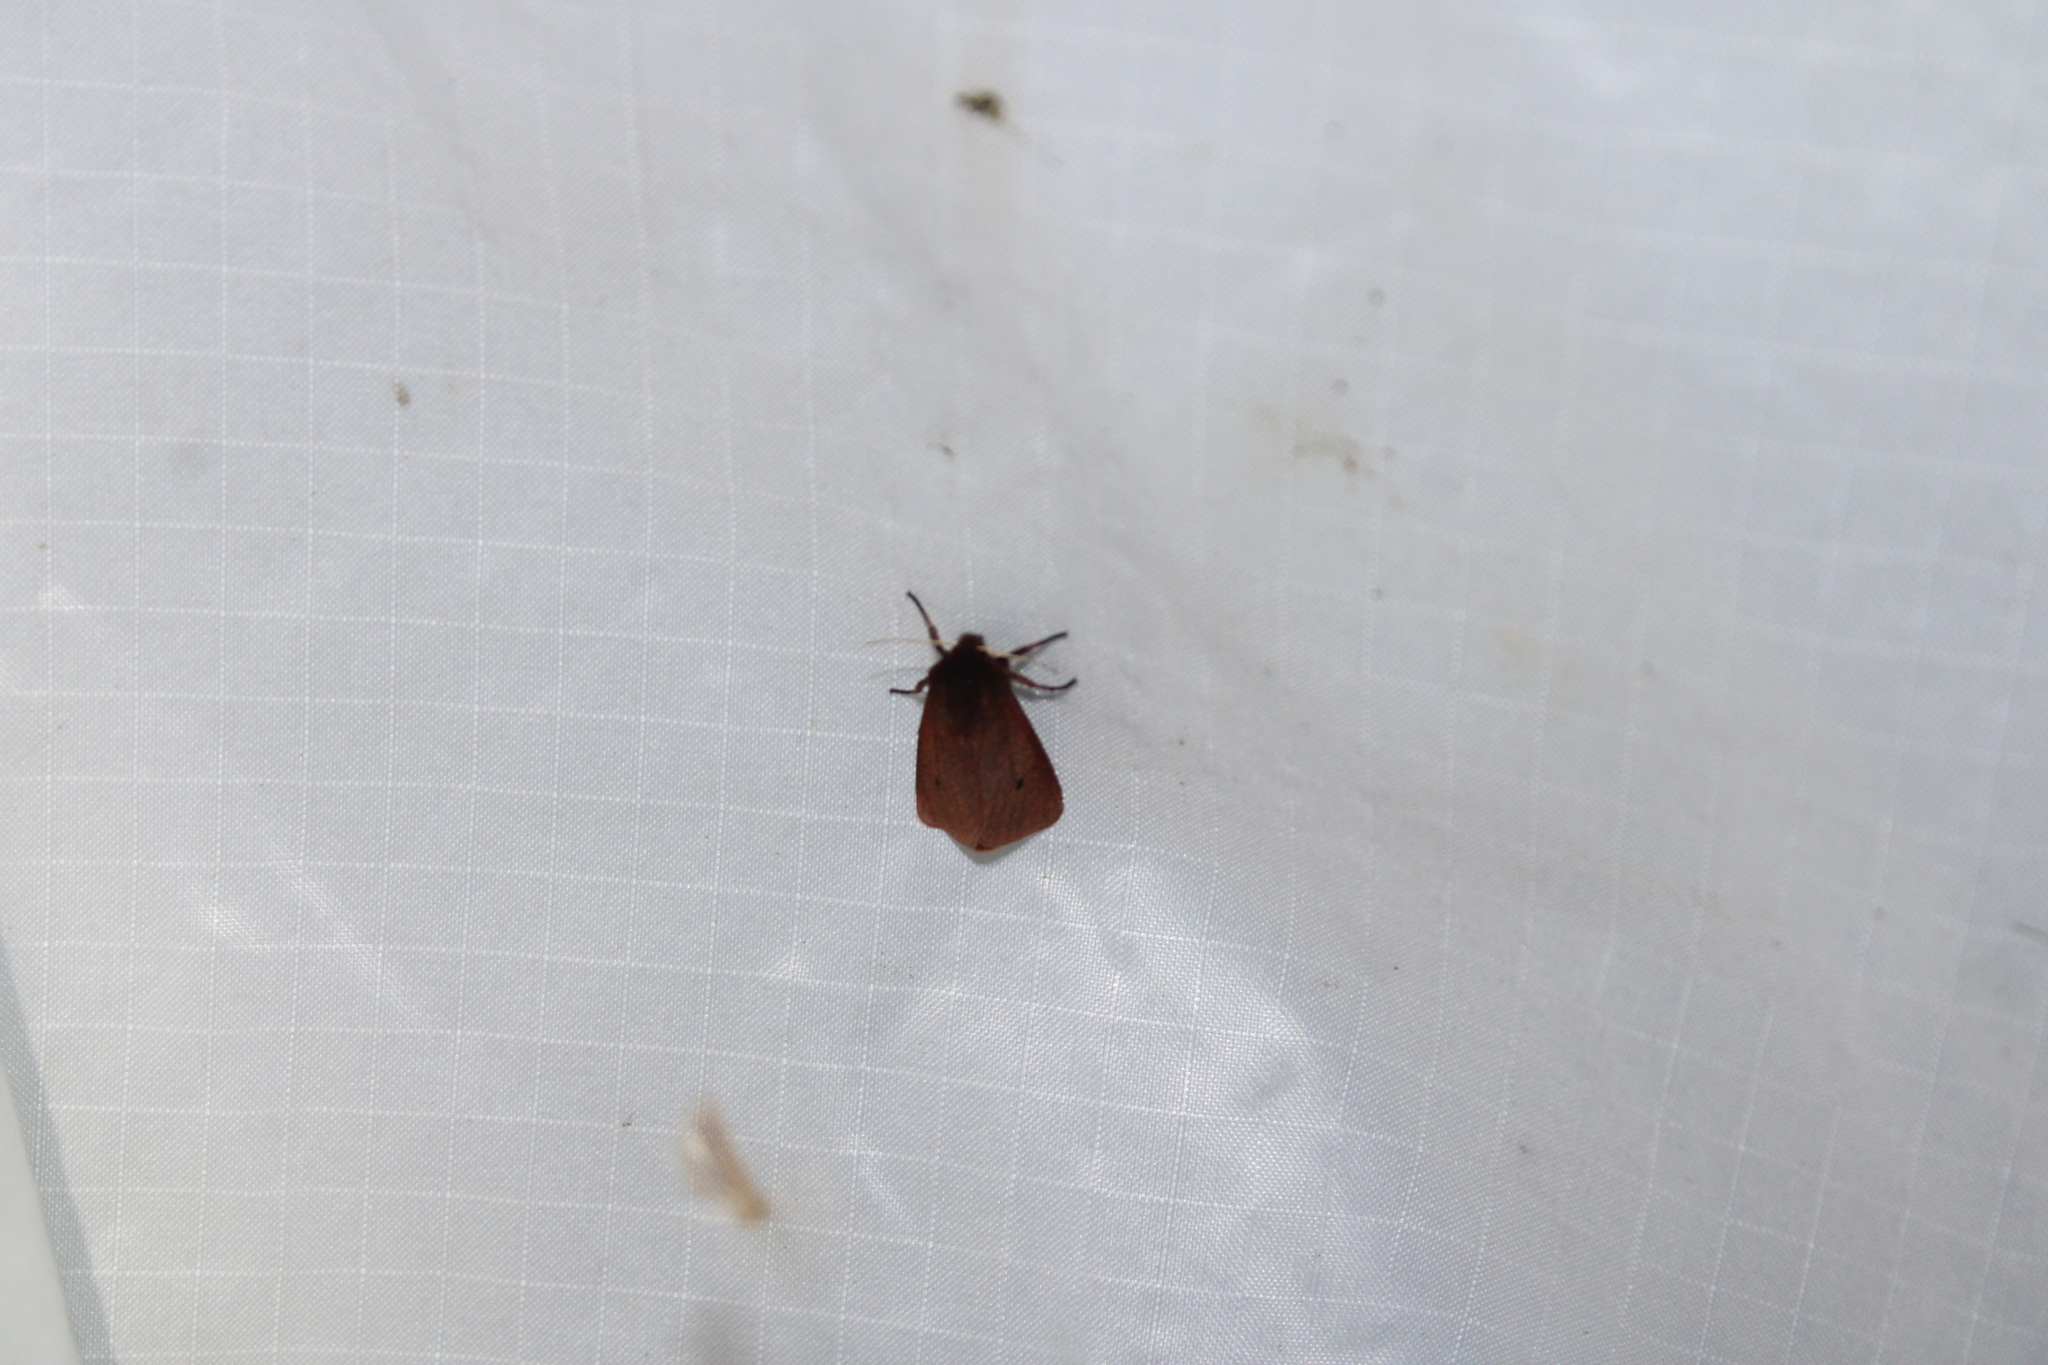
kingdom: Animalia
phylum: Arthropoda
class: Insecta
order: Lepidoptera
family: Erebidae
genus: Phragmatobia
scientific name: Phragmatobia fuliginosa
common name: Ruby tiger
